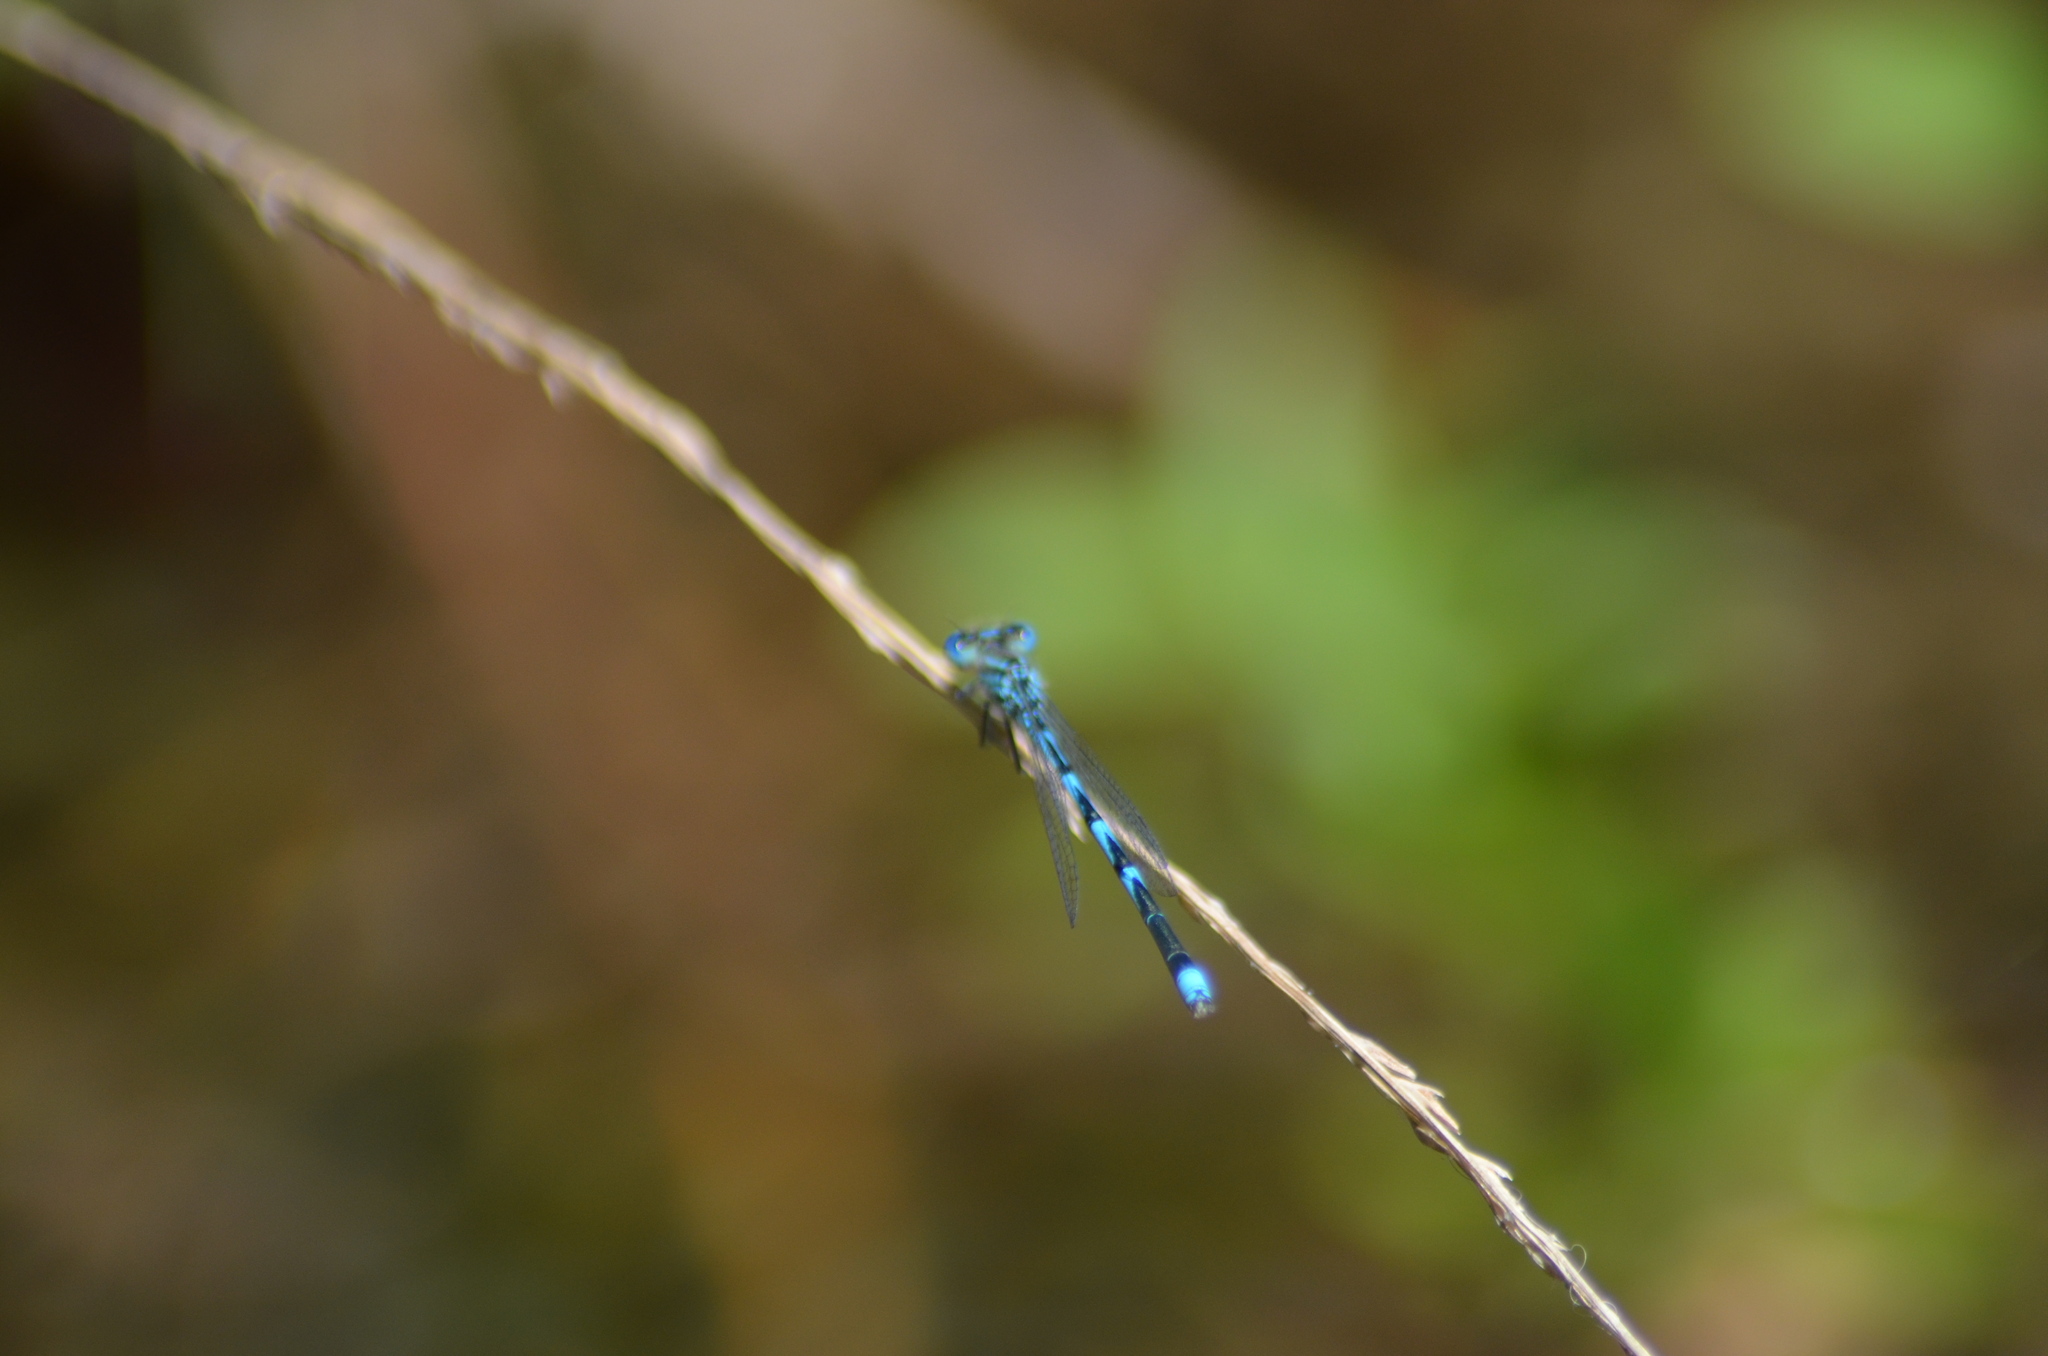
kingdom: Animalia
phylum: Arthropoda
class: Insecta
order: Odonata
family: Coenagrionidae
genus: Erythromma
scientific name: Erythromma lindenii
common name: Blue-eye
